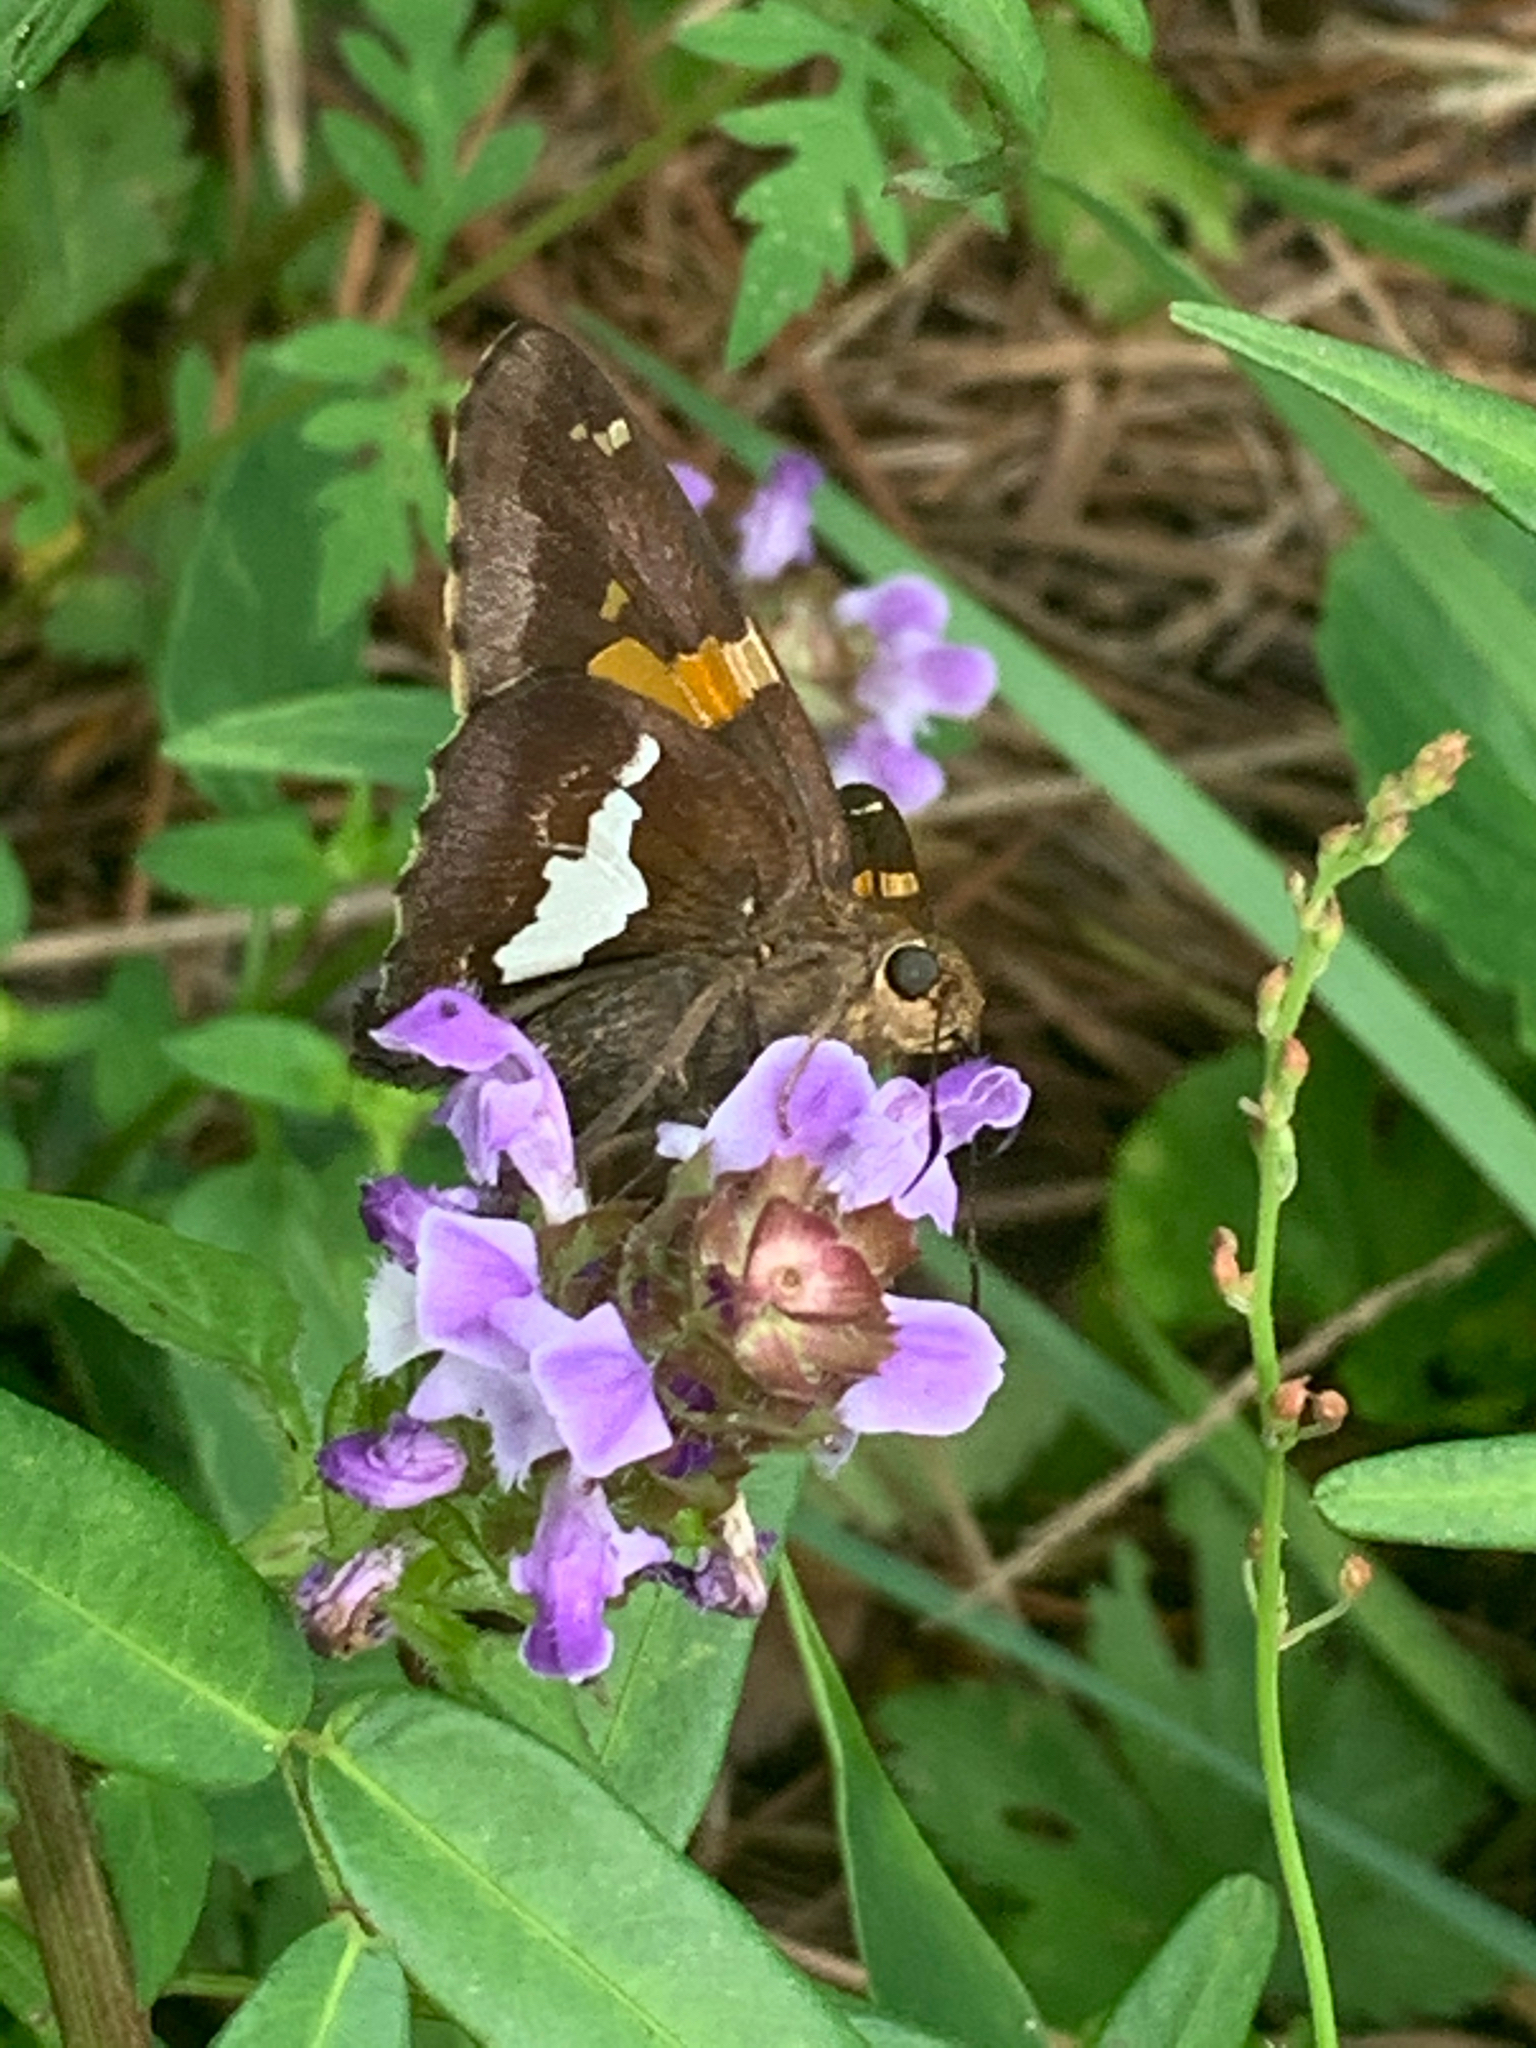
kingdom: Animalia
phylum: Arthropoda
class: Insecta
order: Lepidoptera
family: Hesperiidae
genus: Epargyreus
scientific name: Epargyreus clarus
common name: Silver-spotted skipper
